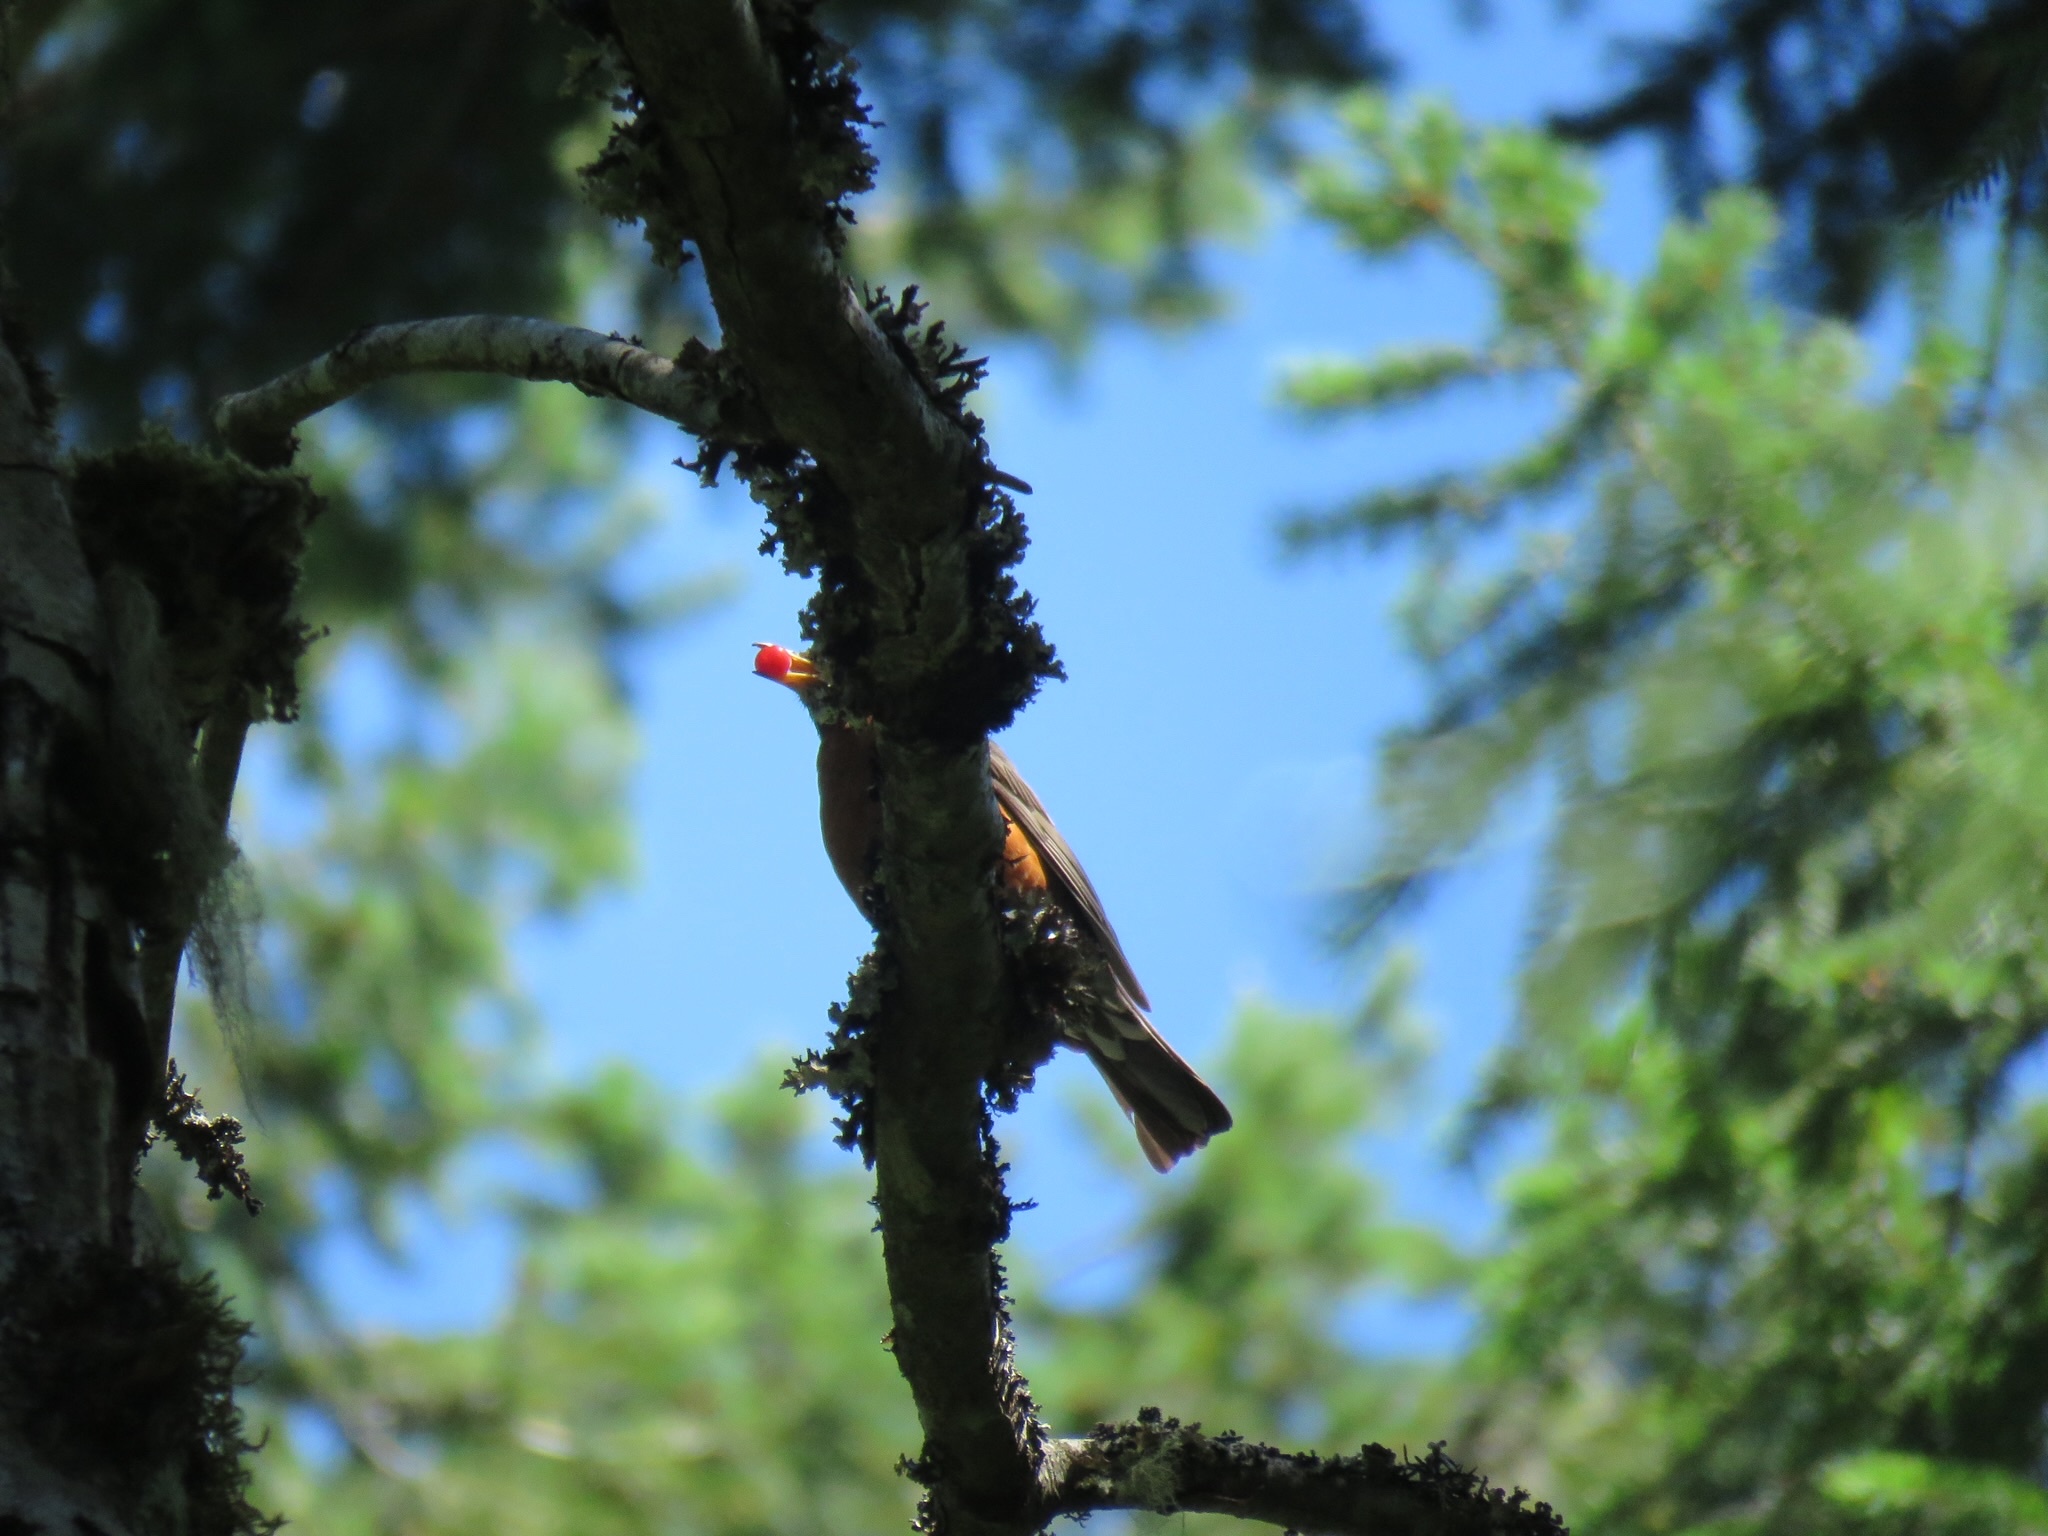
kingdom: Animalia
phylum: Chordata
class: Aves
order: Passeriformes
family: Turdidae
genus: Turdus
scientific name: Turdus migratorius
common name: American robin
